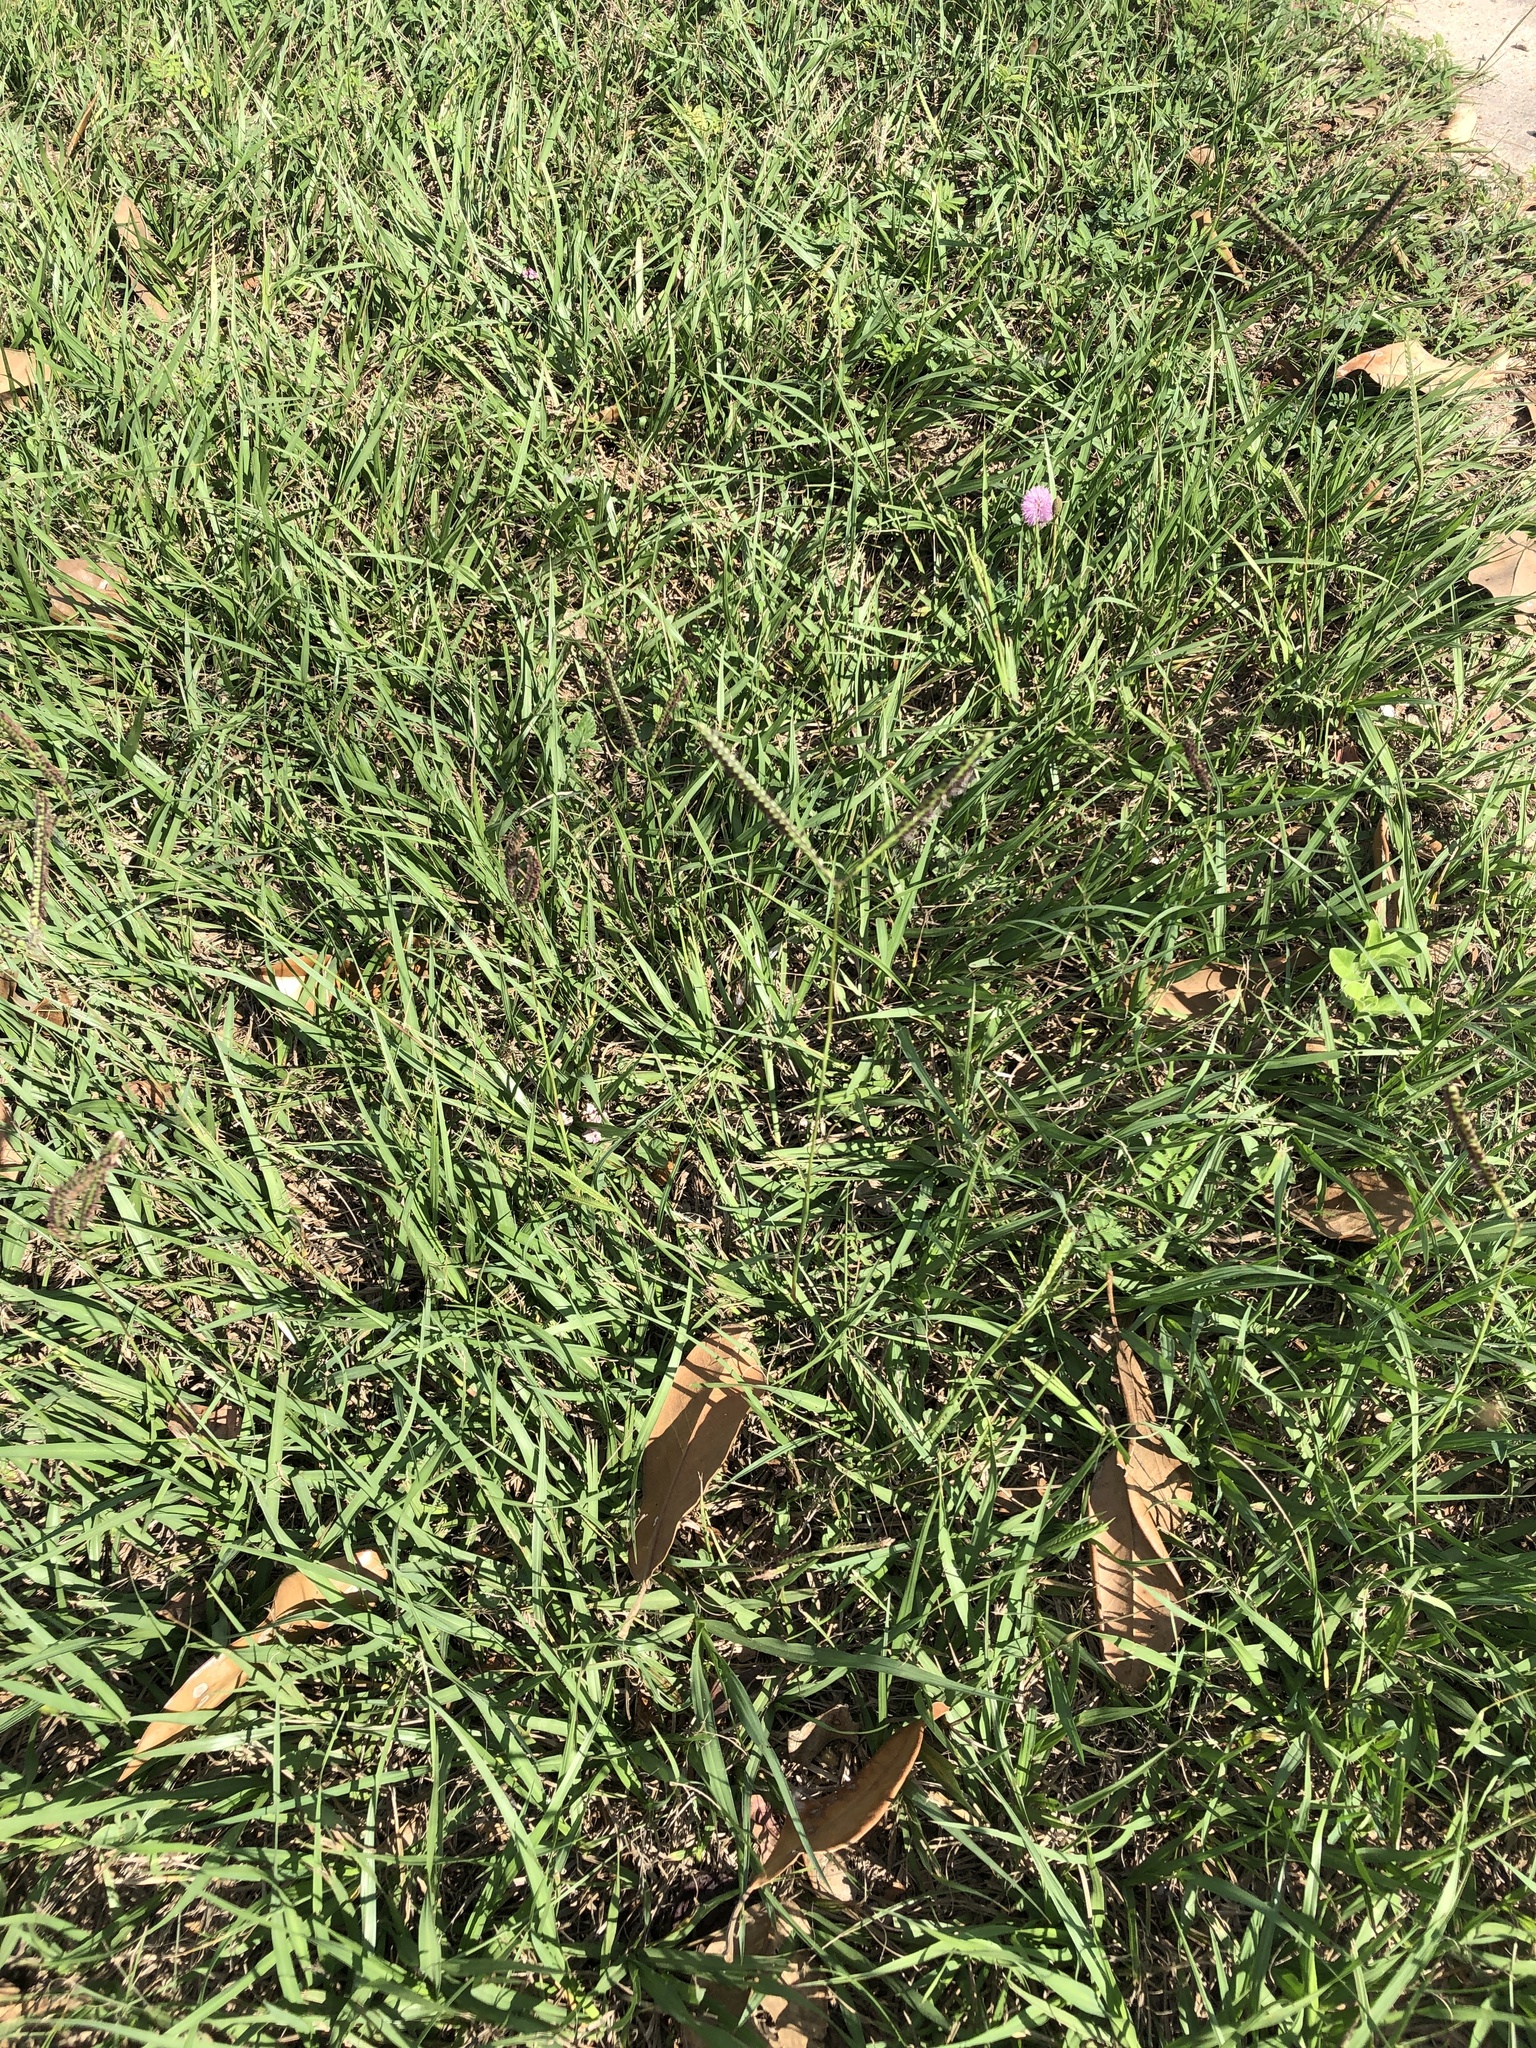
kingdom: Plantae
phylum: Tracheophyta
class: Liliopsida
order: Poales
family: Poaceae
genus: Paspalum
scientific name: Paspalum notatum
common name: Bahiagrass
